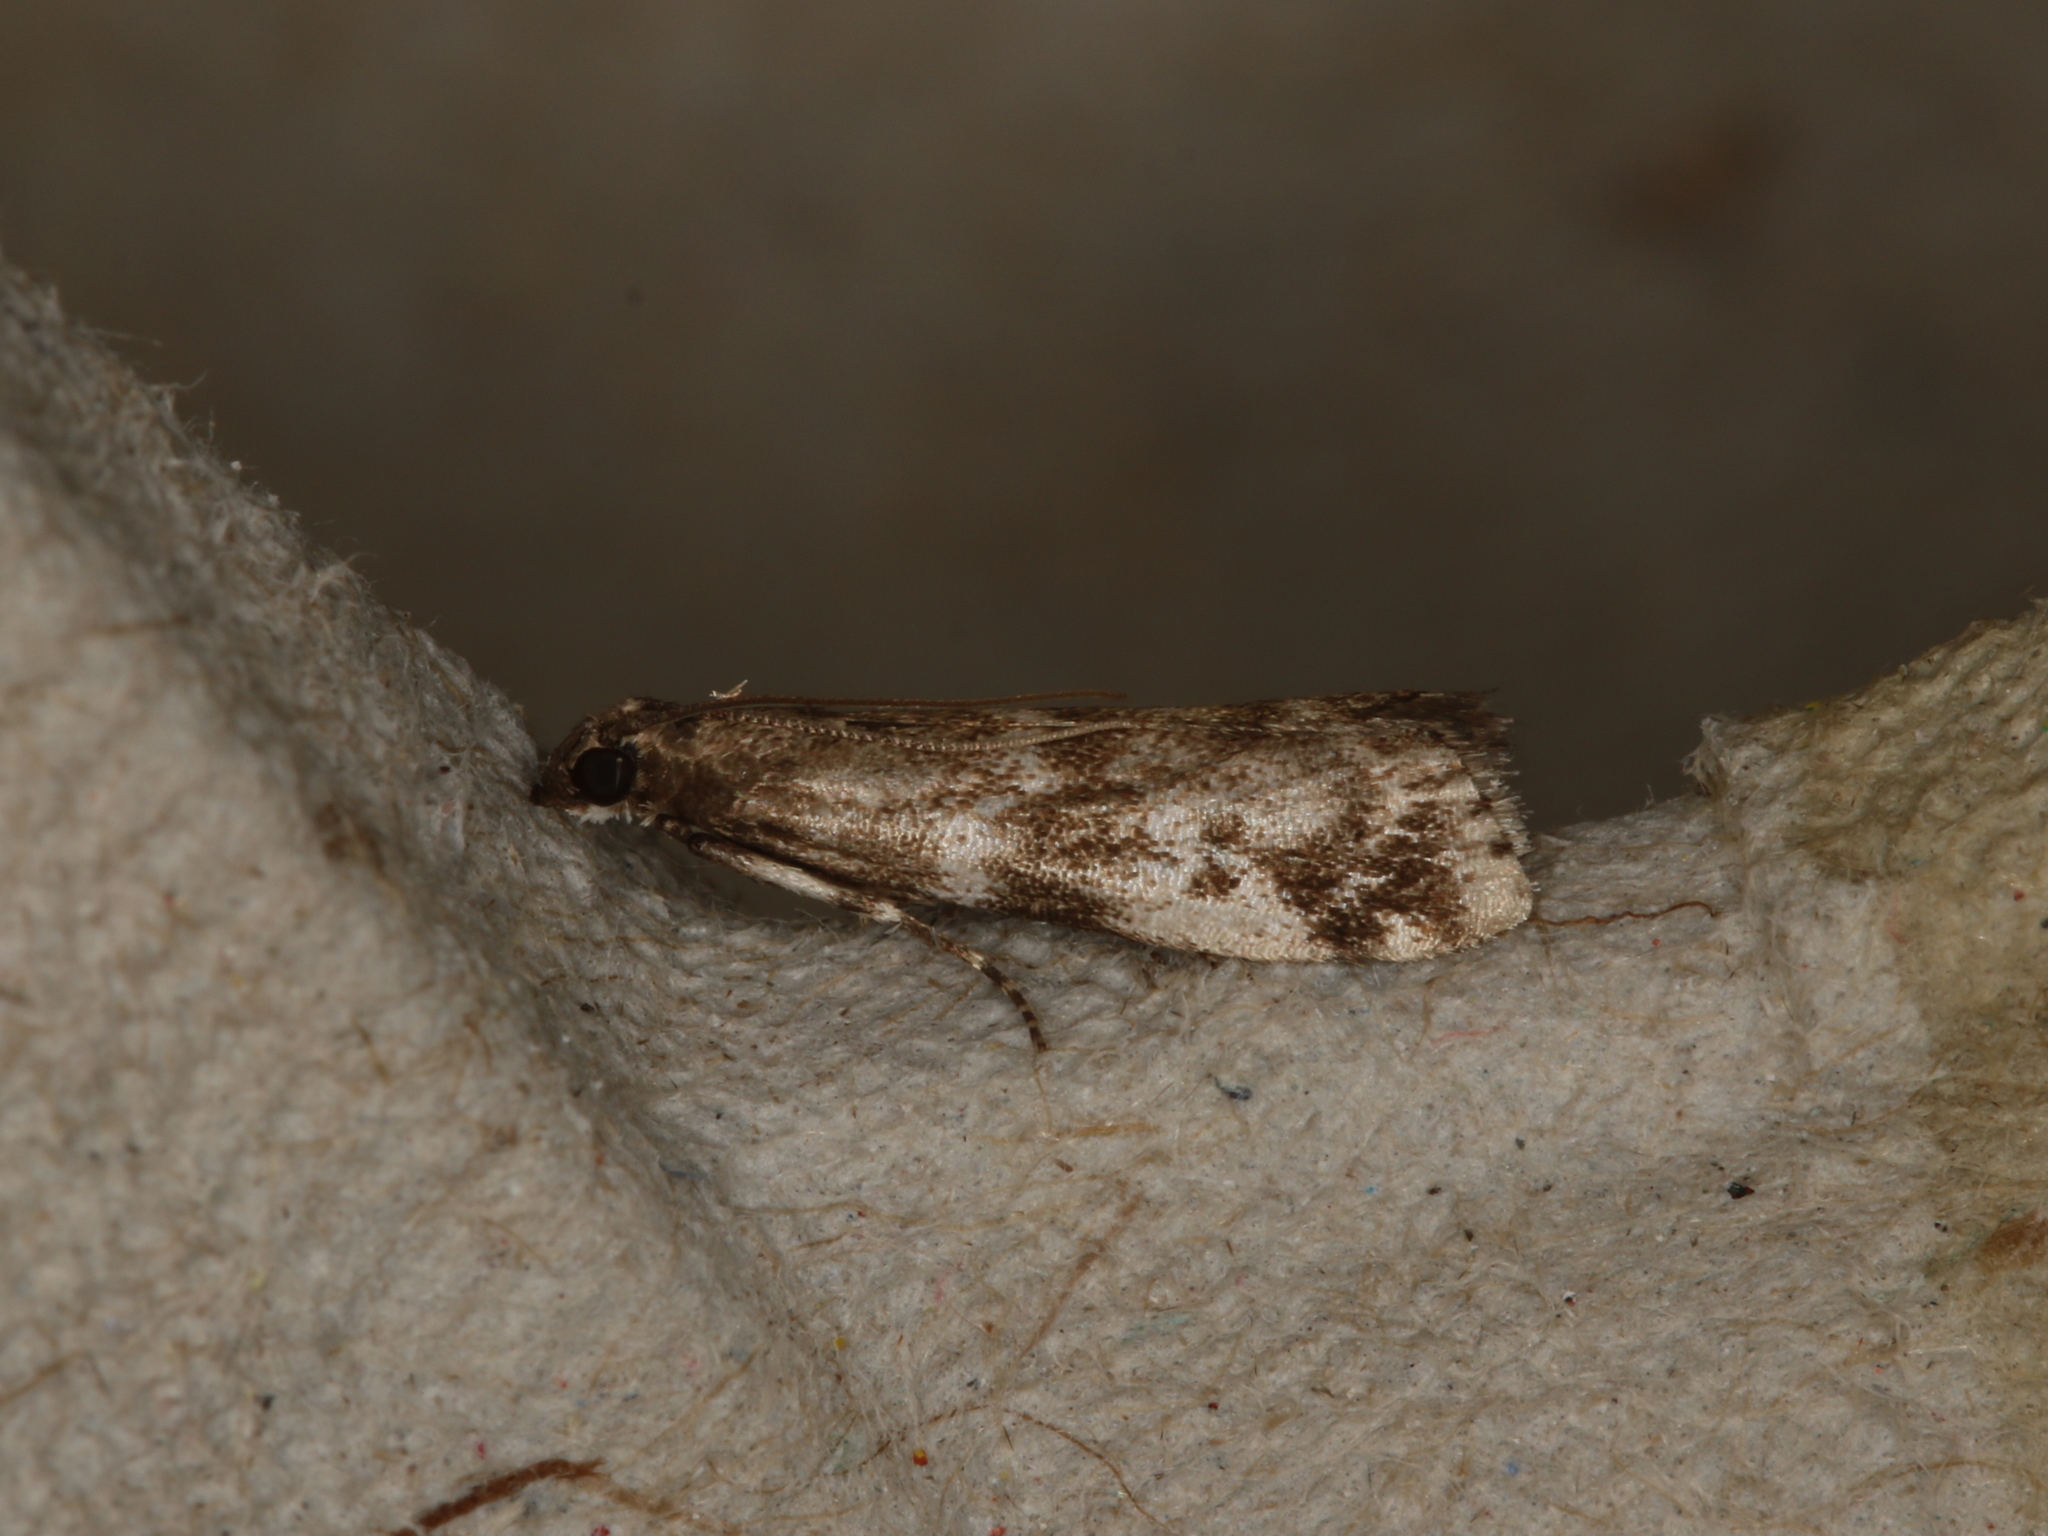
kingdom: Animalia
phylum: Arthropoda
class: Insecta
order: Lepidoptera
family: Pyralidae
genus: Assara
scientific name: Assara terebrella
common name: Dark spruce knot-horn
